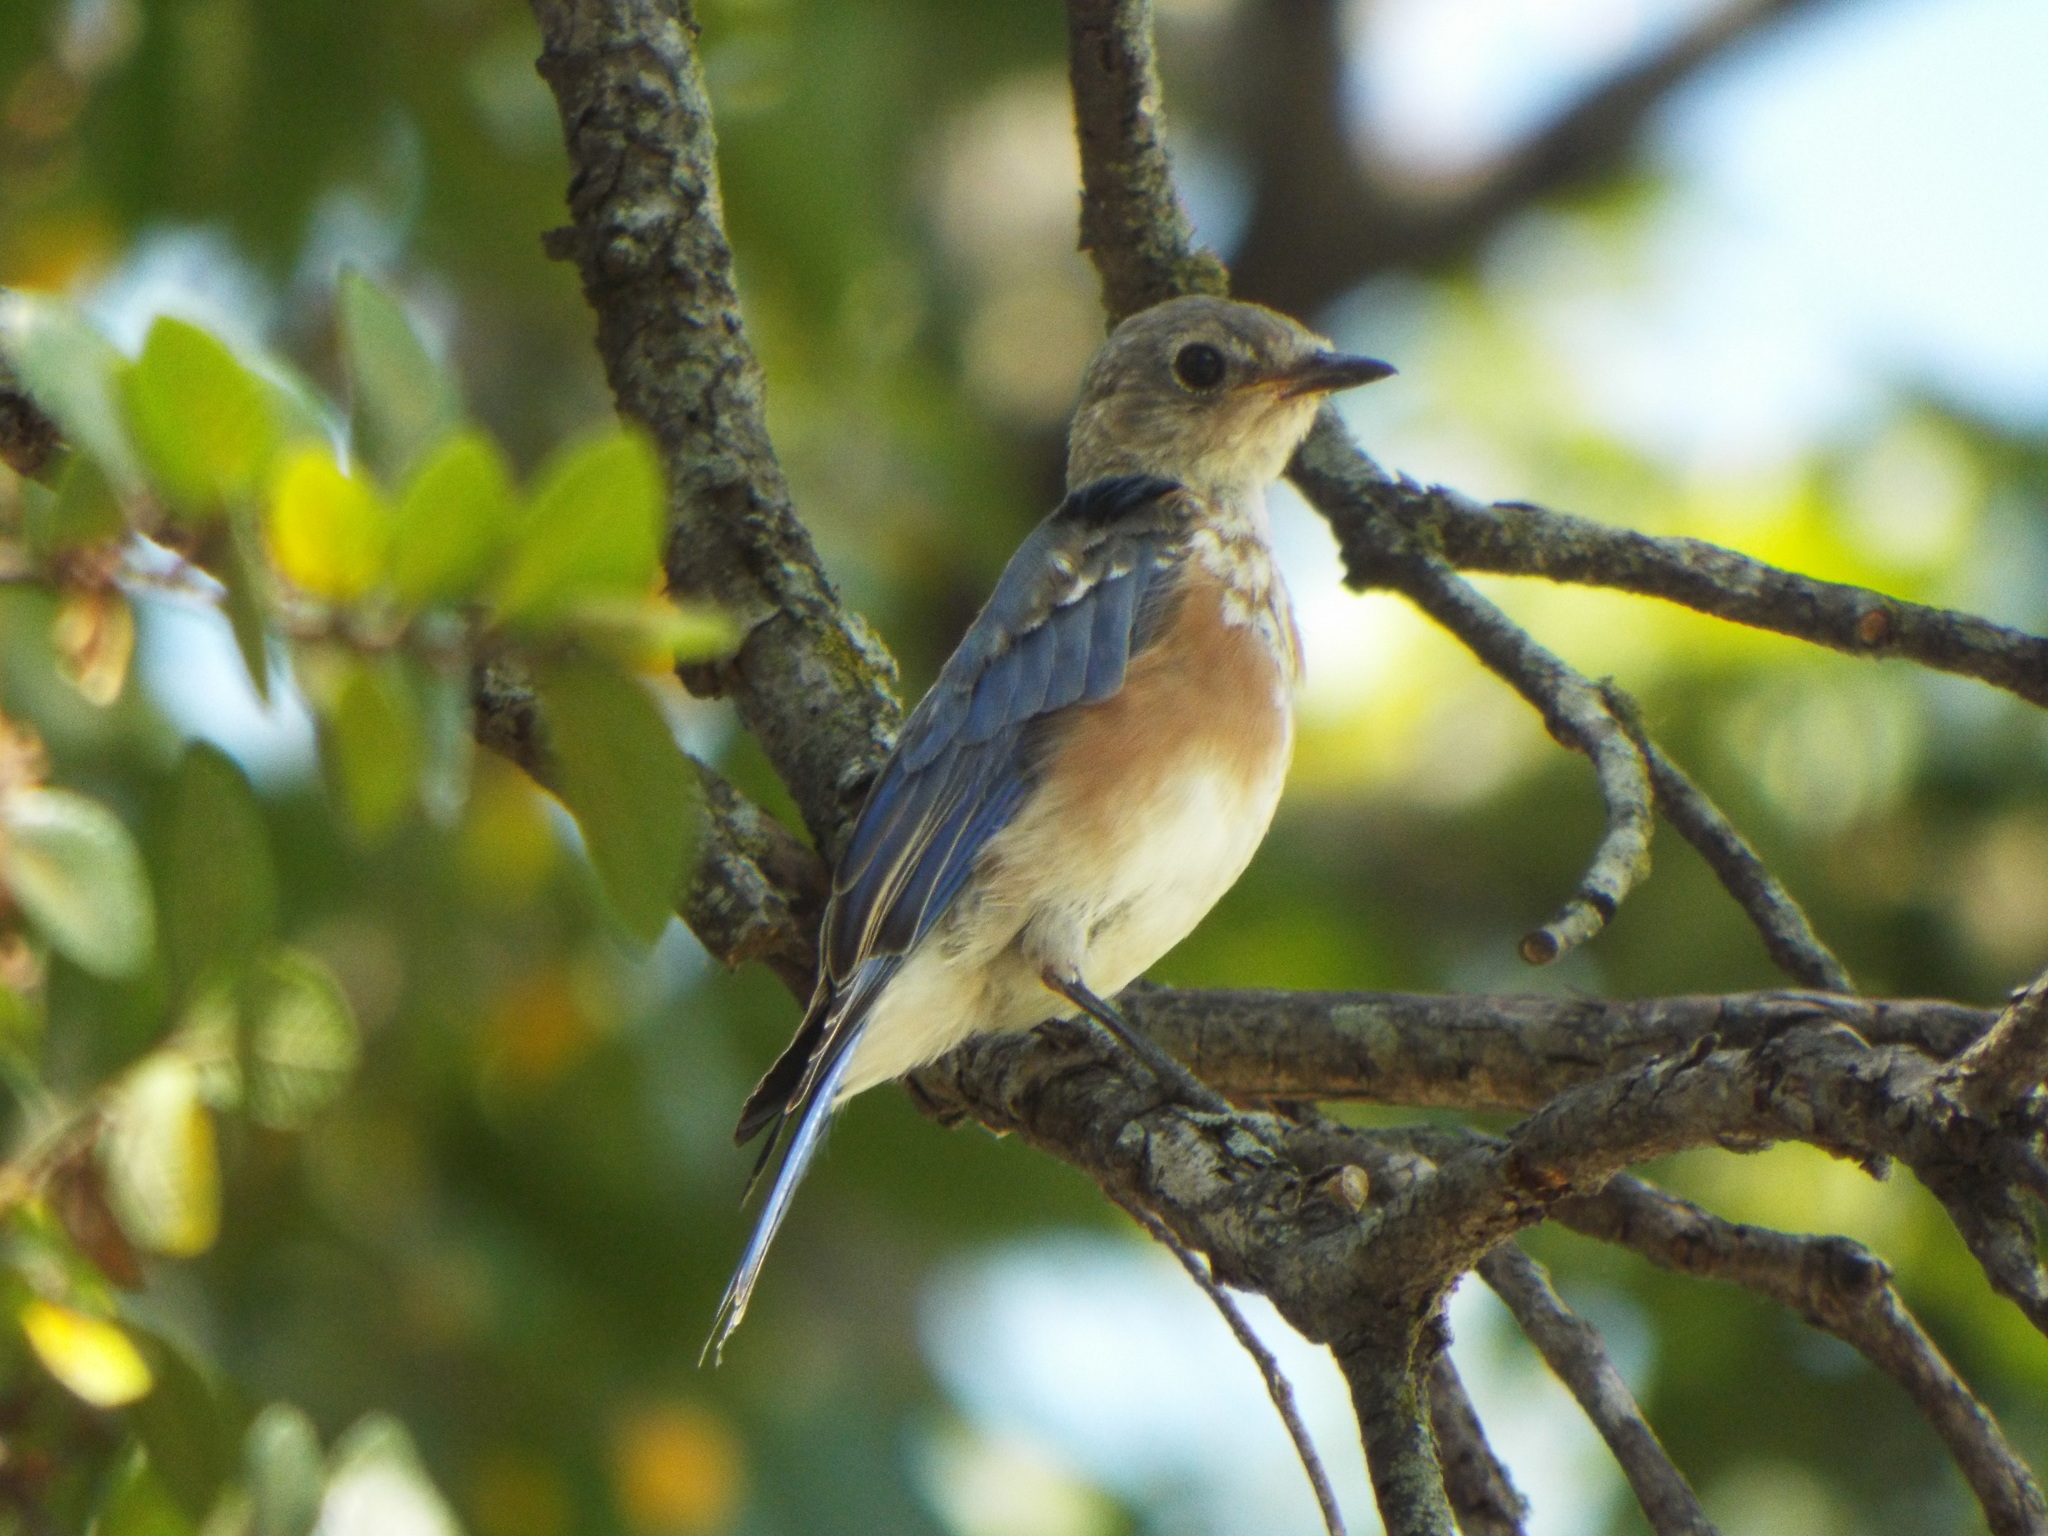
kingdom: Animalia
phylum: Chordata
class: Aves
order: Passeriformes
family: Turdidae
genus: Sialia
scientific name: Sialia sialis
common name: Eastern bluebird
